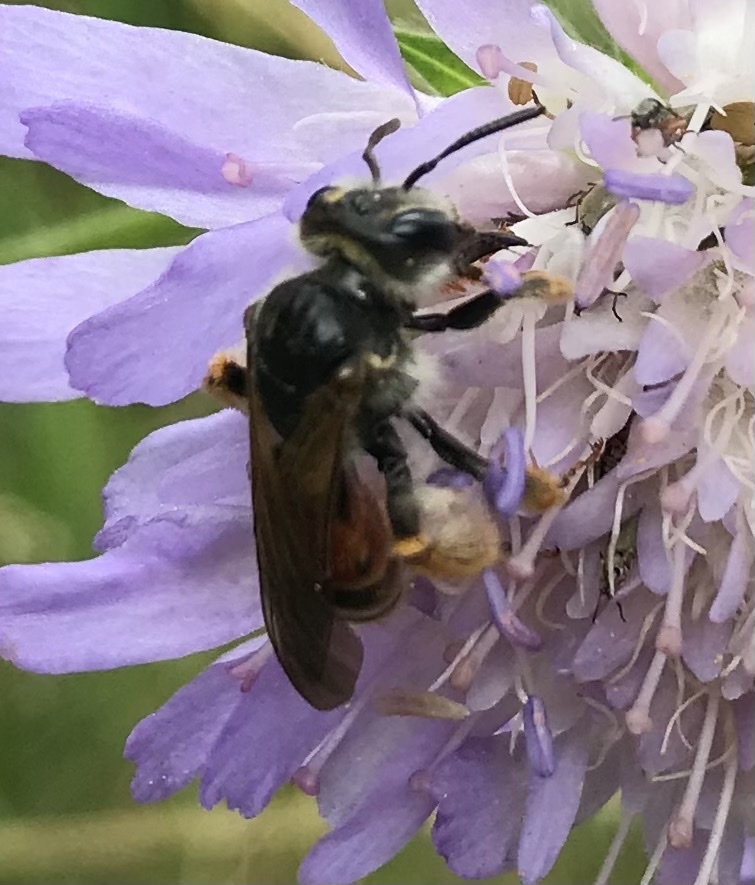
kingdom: Animalia
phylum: Arthropoda
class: Insecta
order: Hymenoptera
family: Andrenidae
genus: Andrena
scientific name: Andrena hattorfiana
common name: Large scabious mining bee
